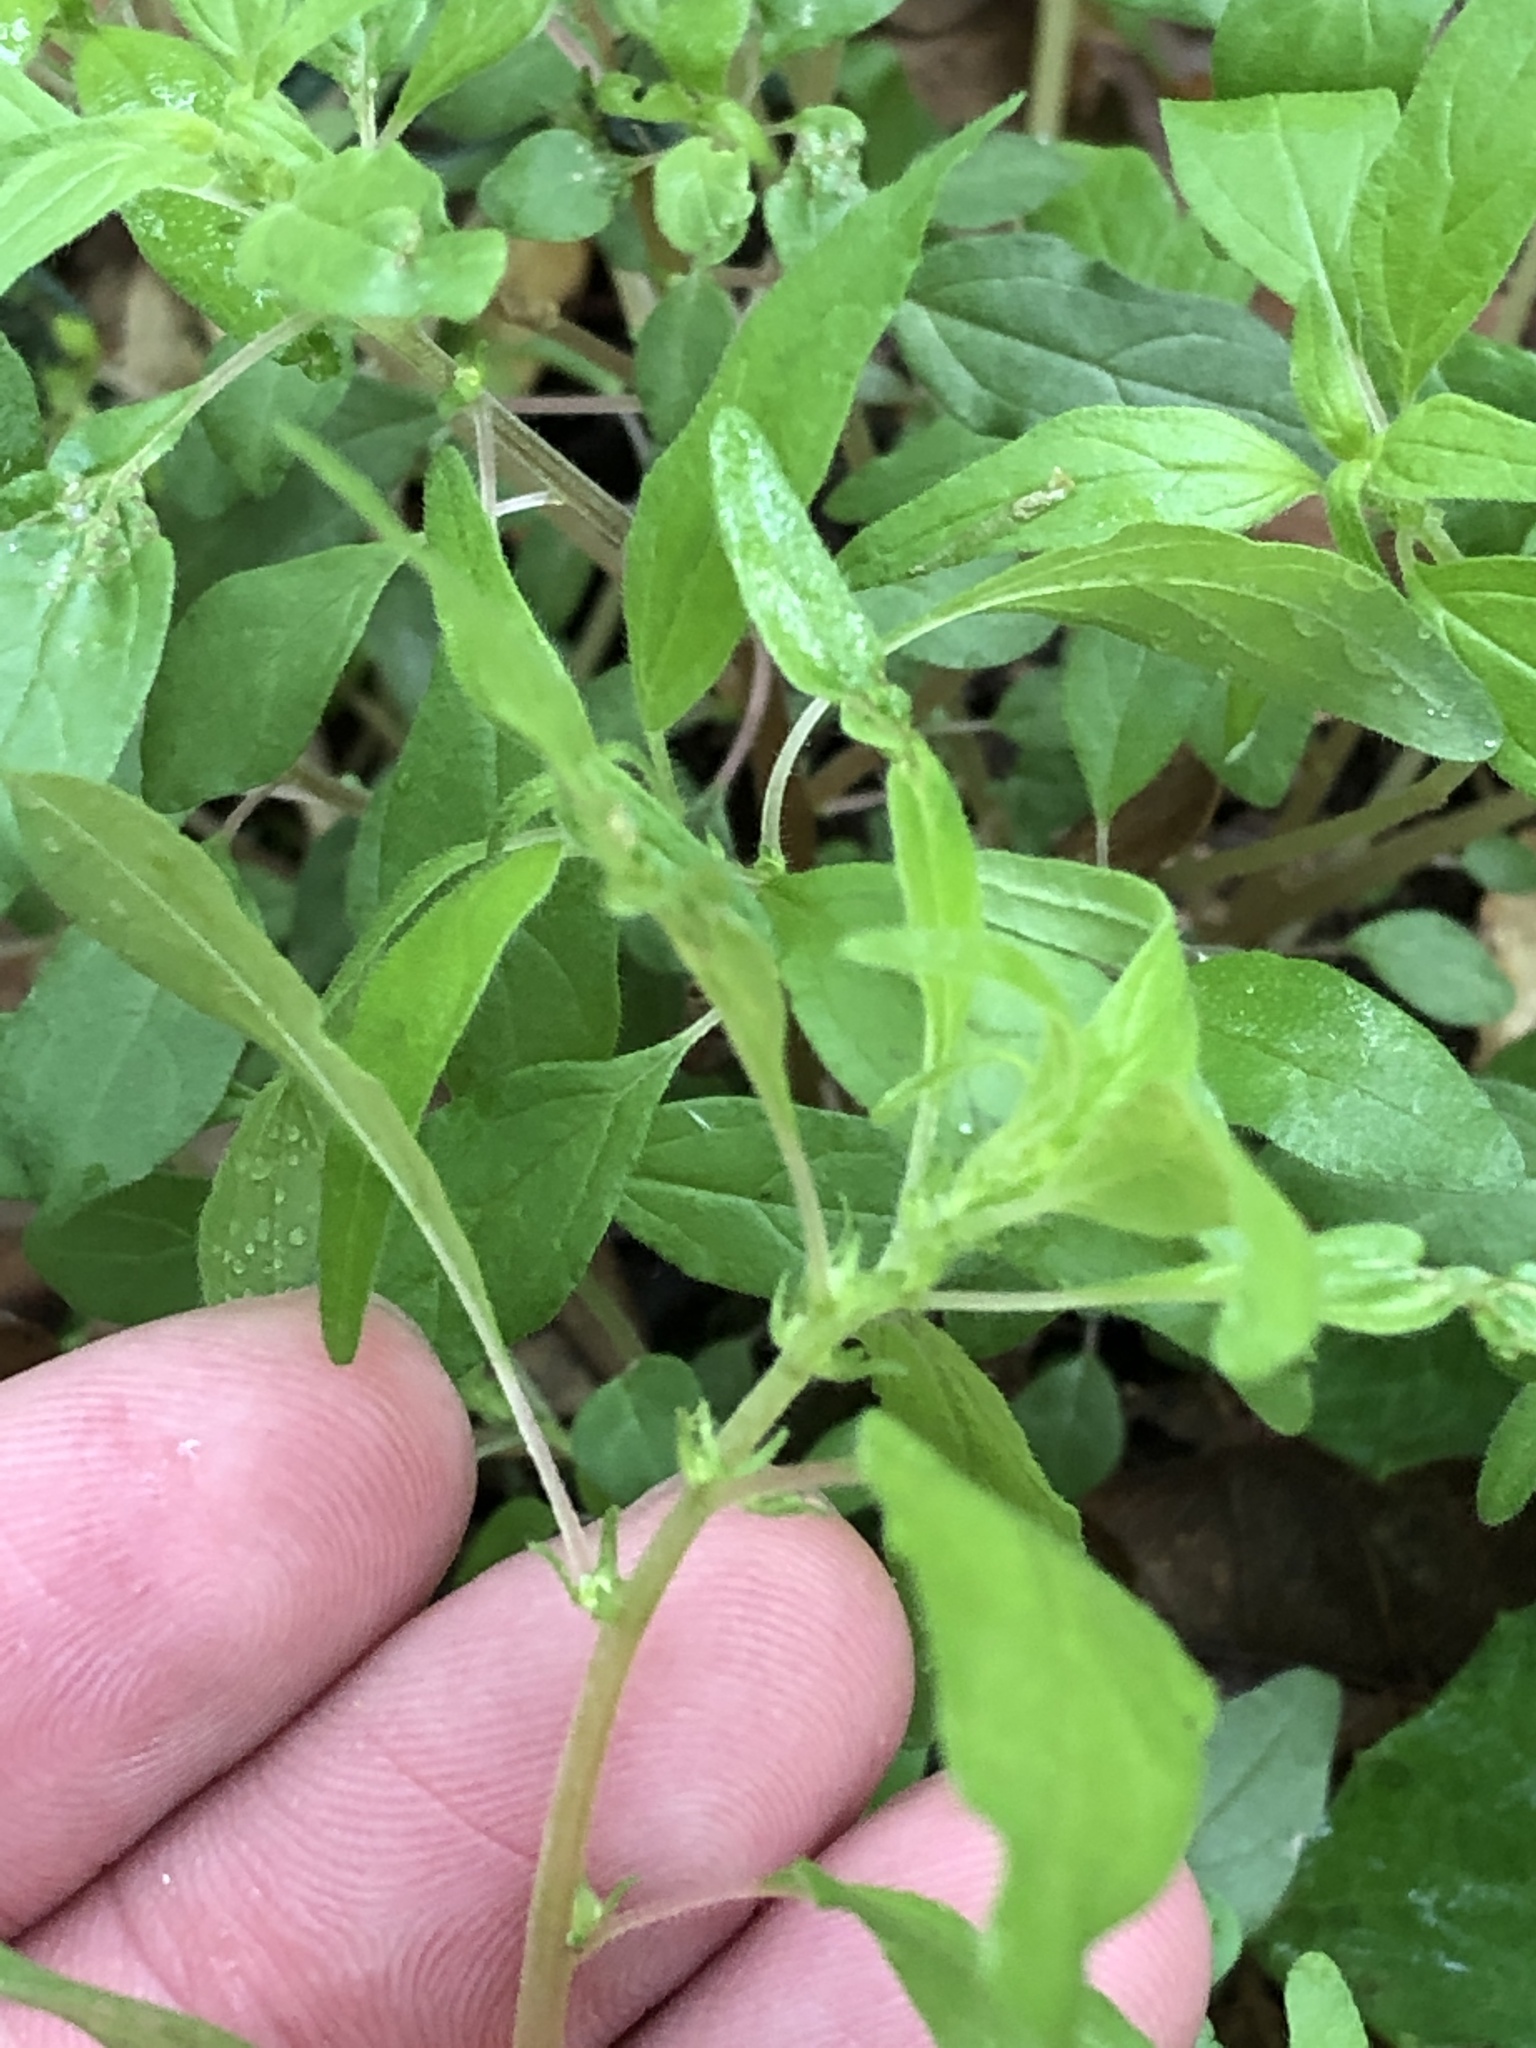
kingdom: Plantae
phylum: Tracheophyta
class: Magnoliopsida
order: Rosales
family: Urticaceae
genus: Parietaria
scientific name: Parietaria pensylvanica
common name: Pennsylvania pellitory
